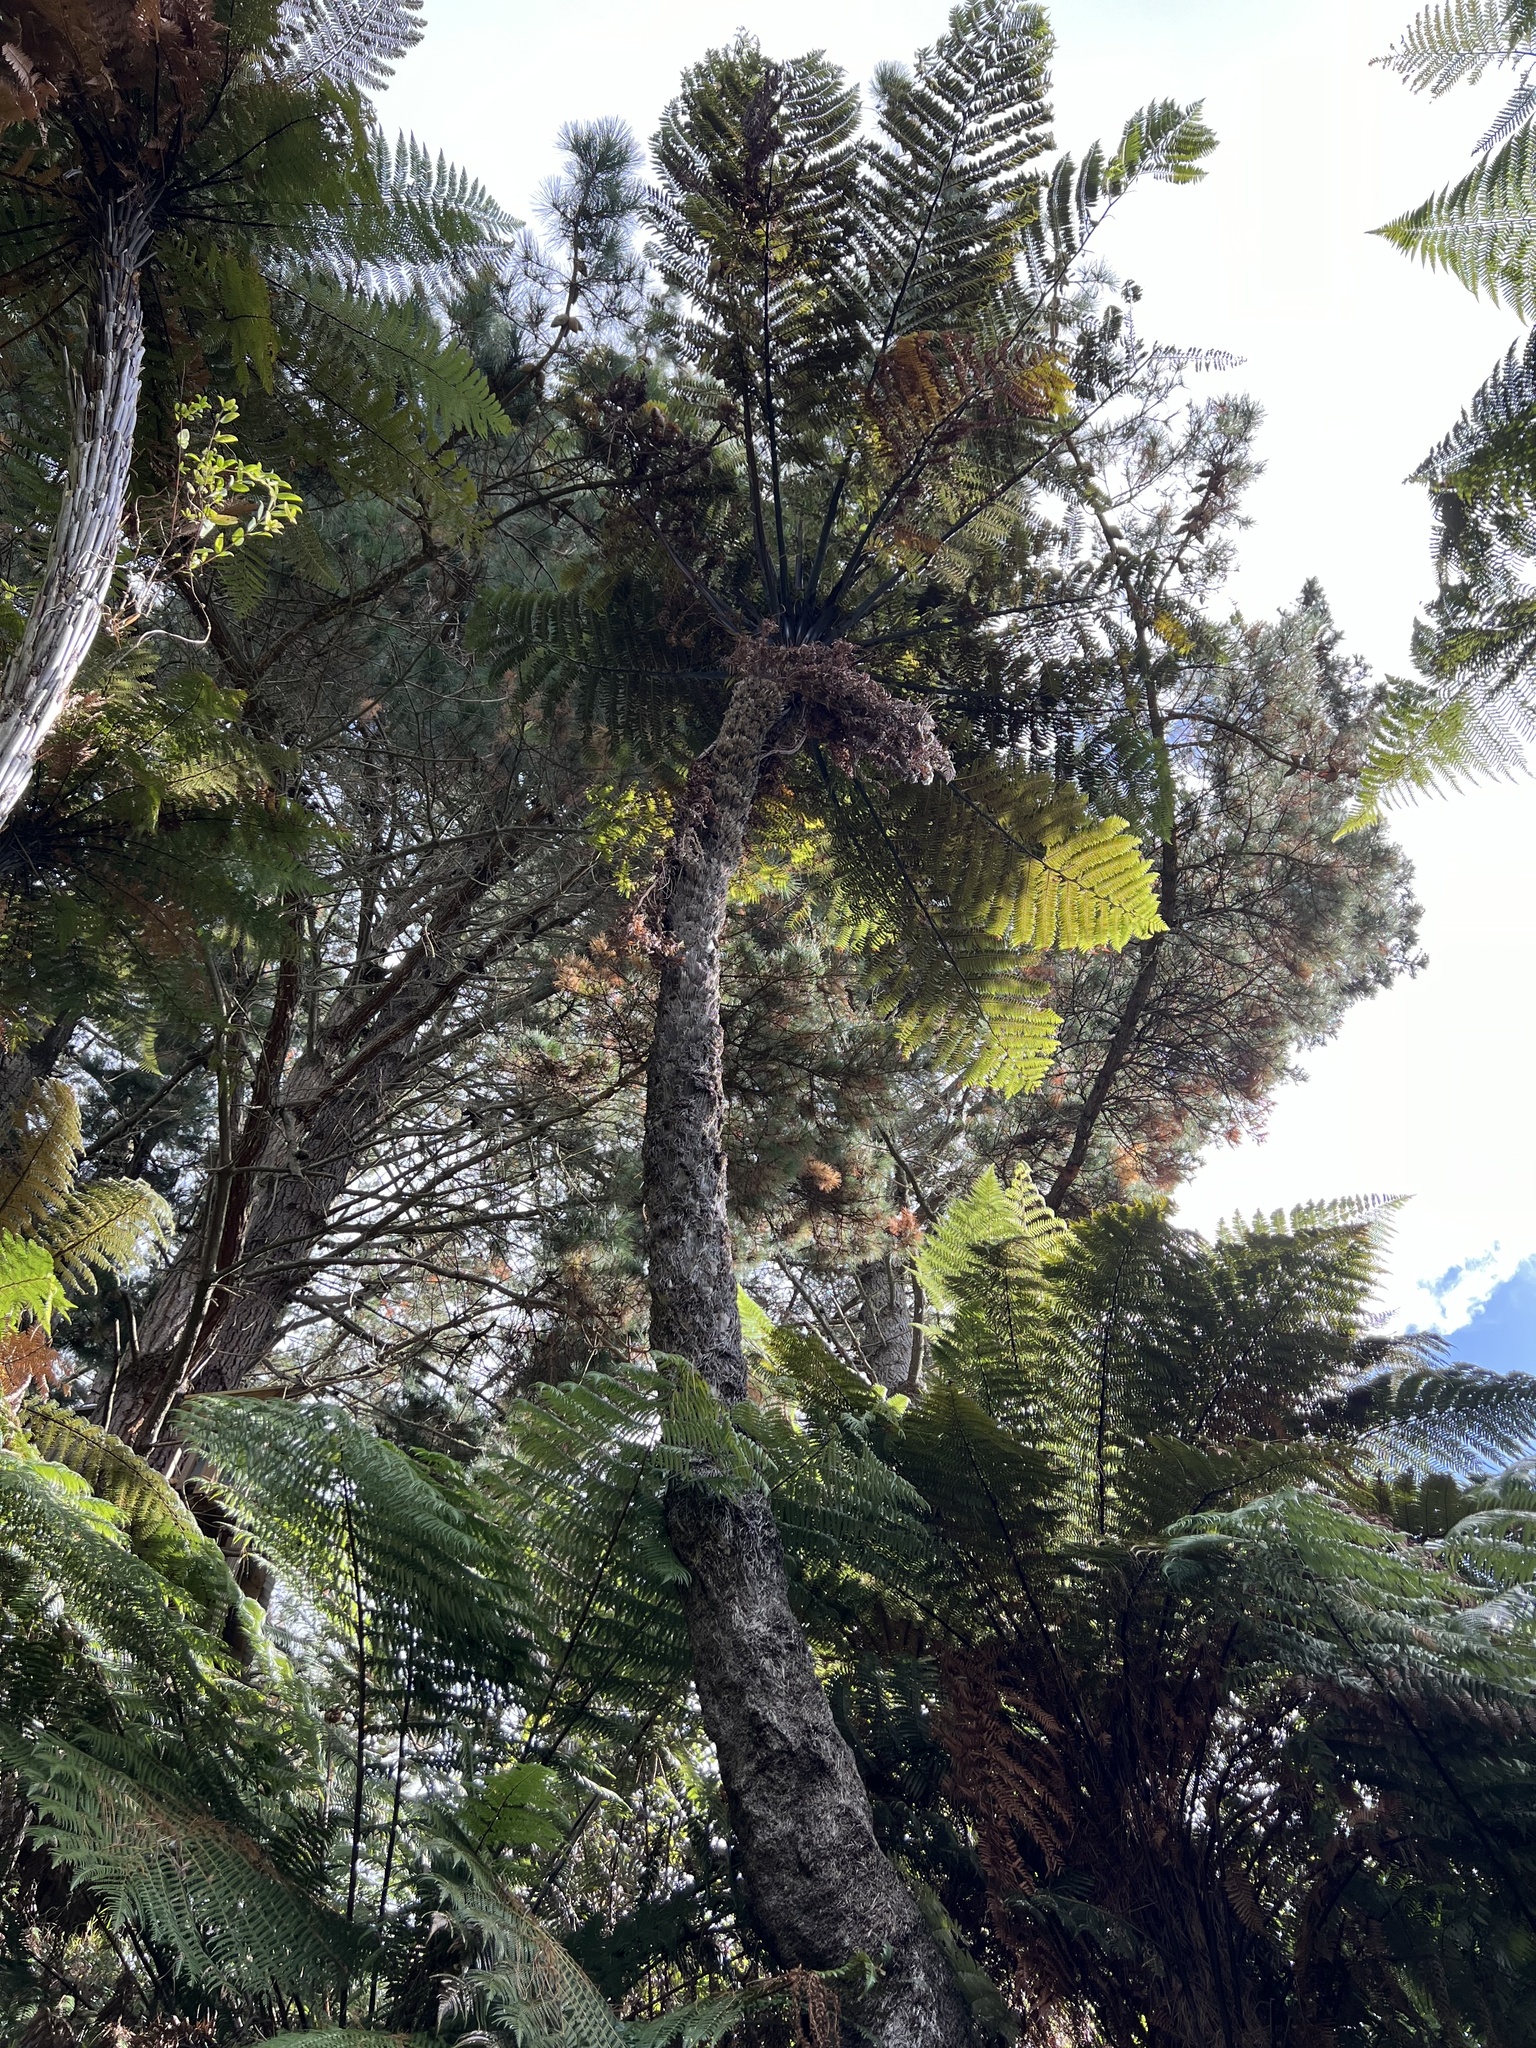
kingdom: Plantae
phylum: Tracheophyta
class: Polypodiopsida
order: Cyatheales
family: Cyatheaceae
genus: Sphaeropteris
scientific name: Sphaeropteris medullaris
